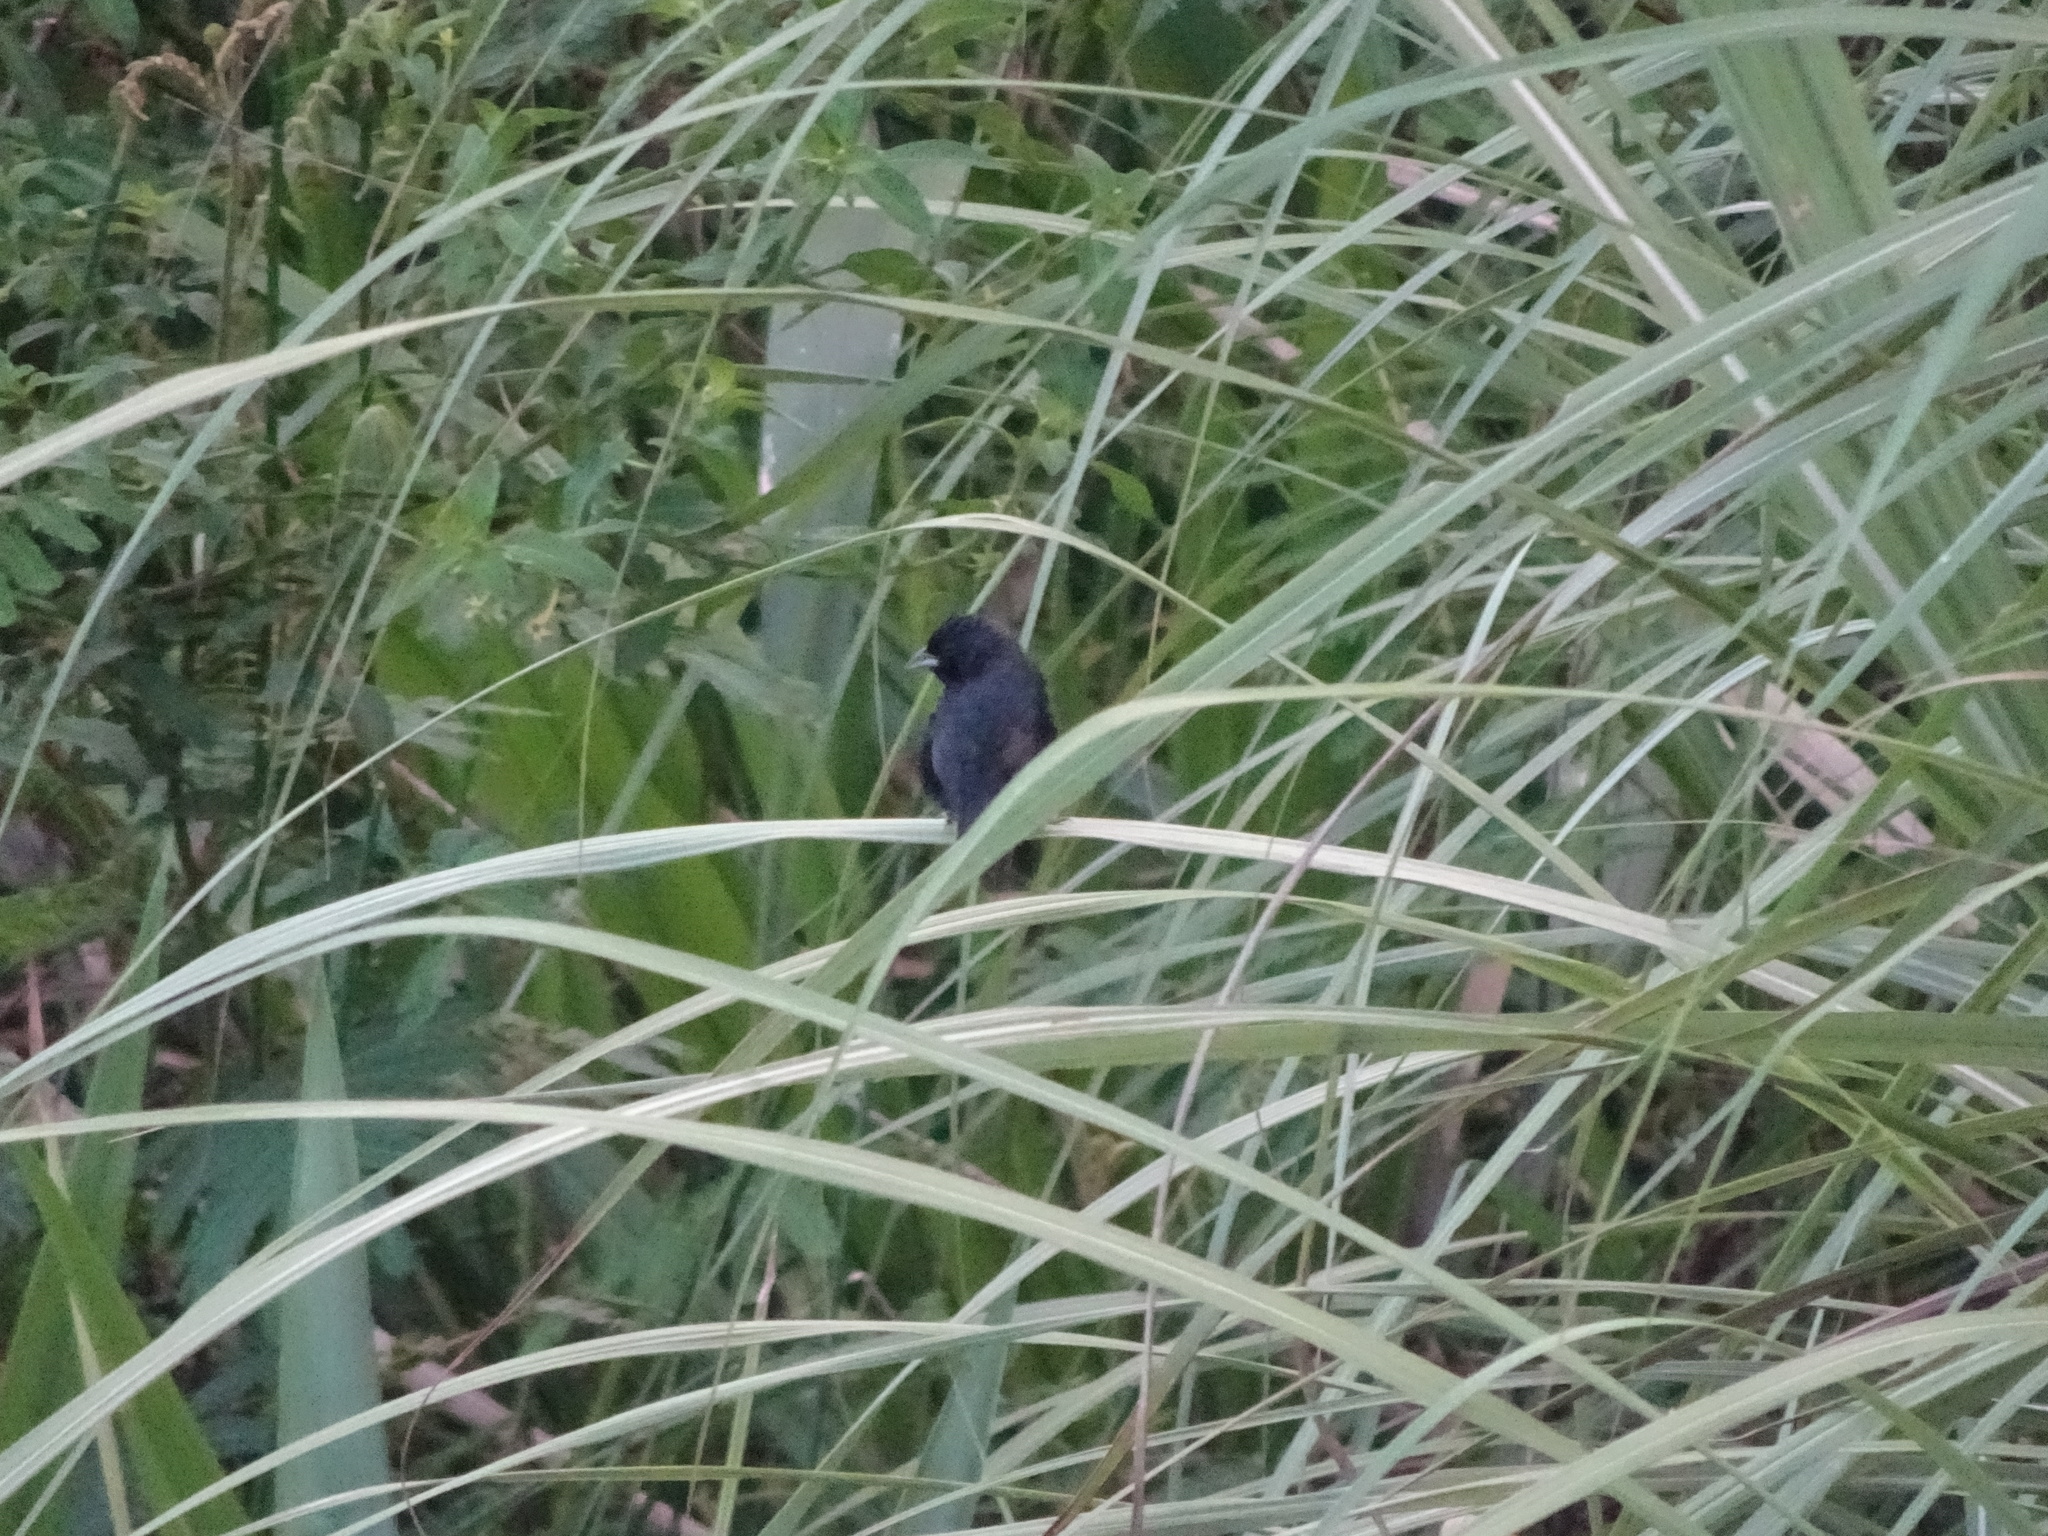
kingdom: Animalia
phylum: Chordata
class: Aves
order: Passeriformes
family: Thraupidae
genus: Volatinia
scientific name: Volatinia jacarina
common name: Blue-black grassquit
